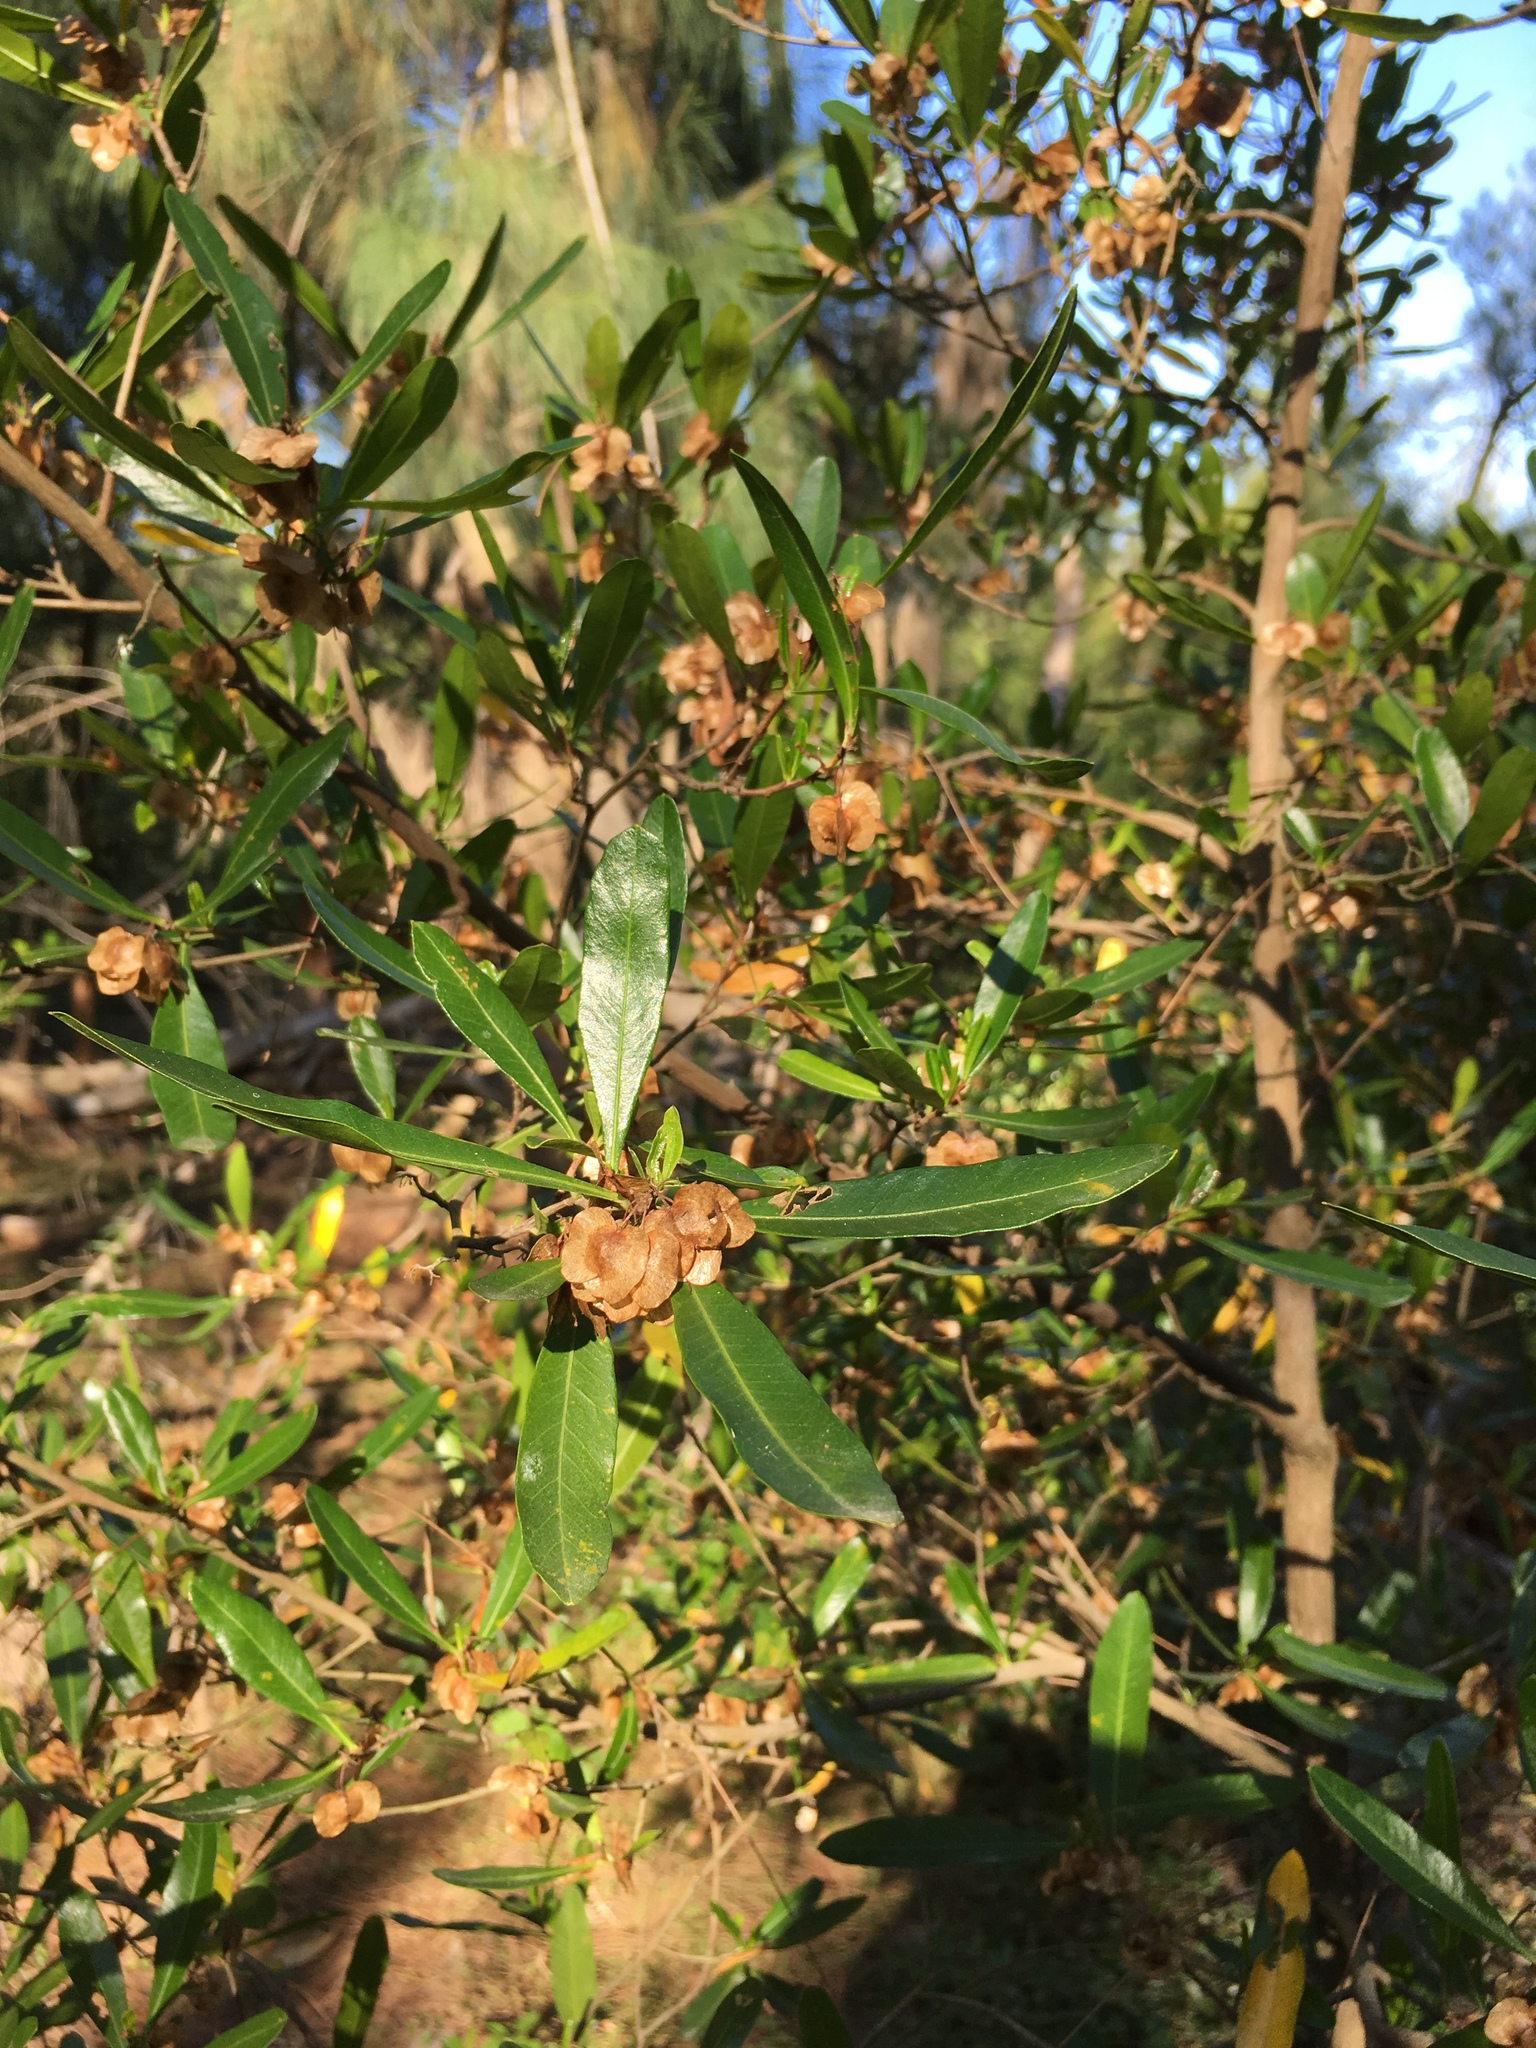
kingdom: Plantae
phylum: Tracheophyta
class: Magnoliopsida
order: Sapindales
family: Sapindaceae
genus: Dodonaea
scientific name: Dodonaea viscosa
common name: Hopbush
